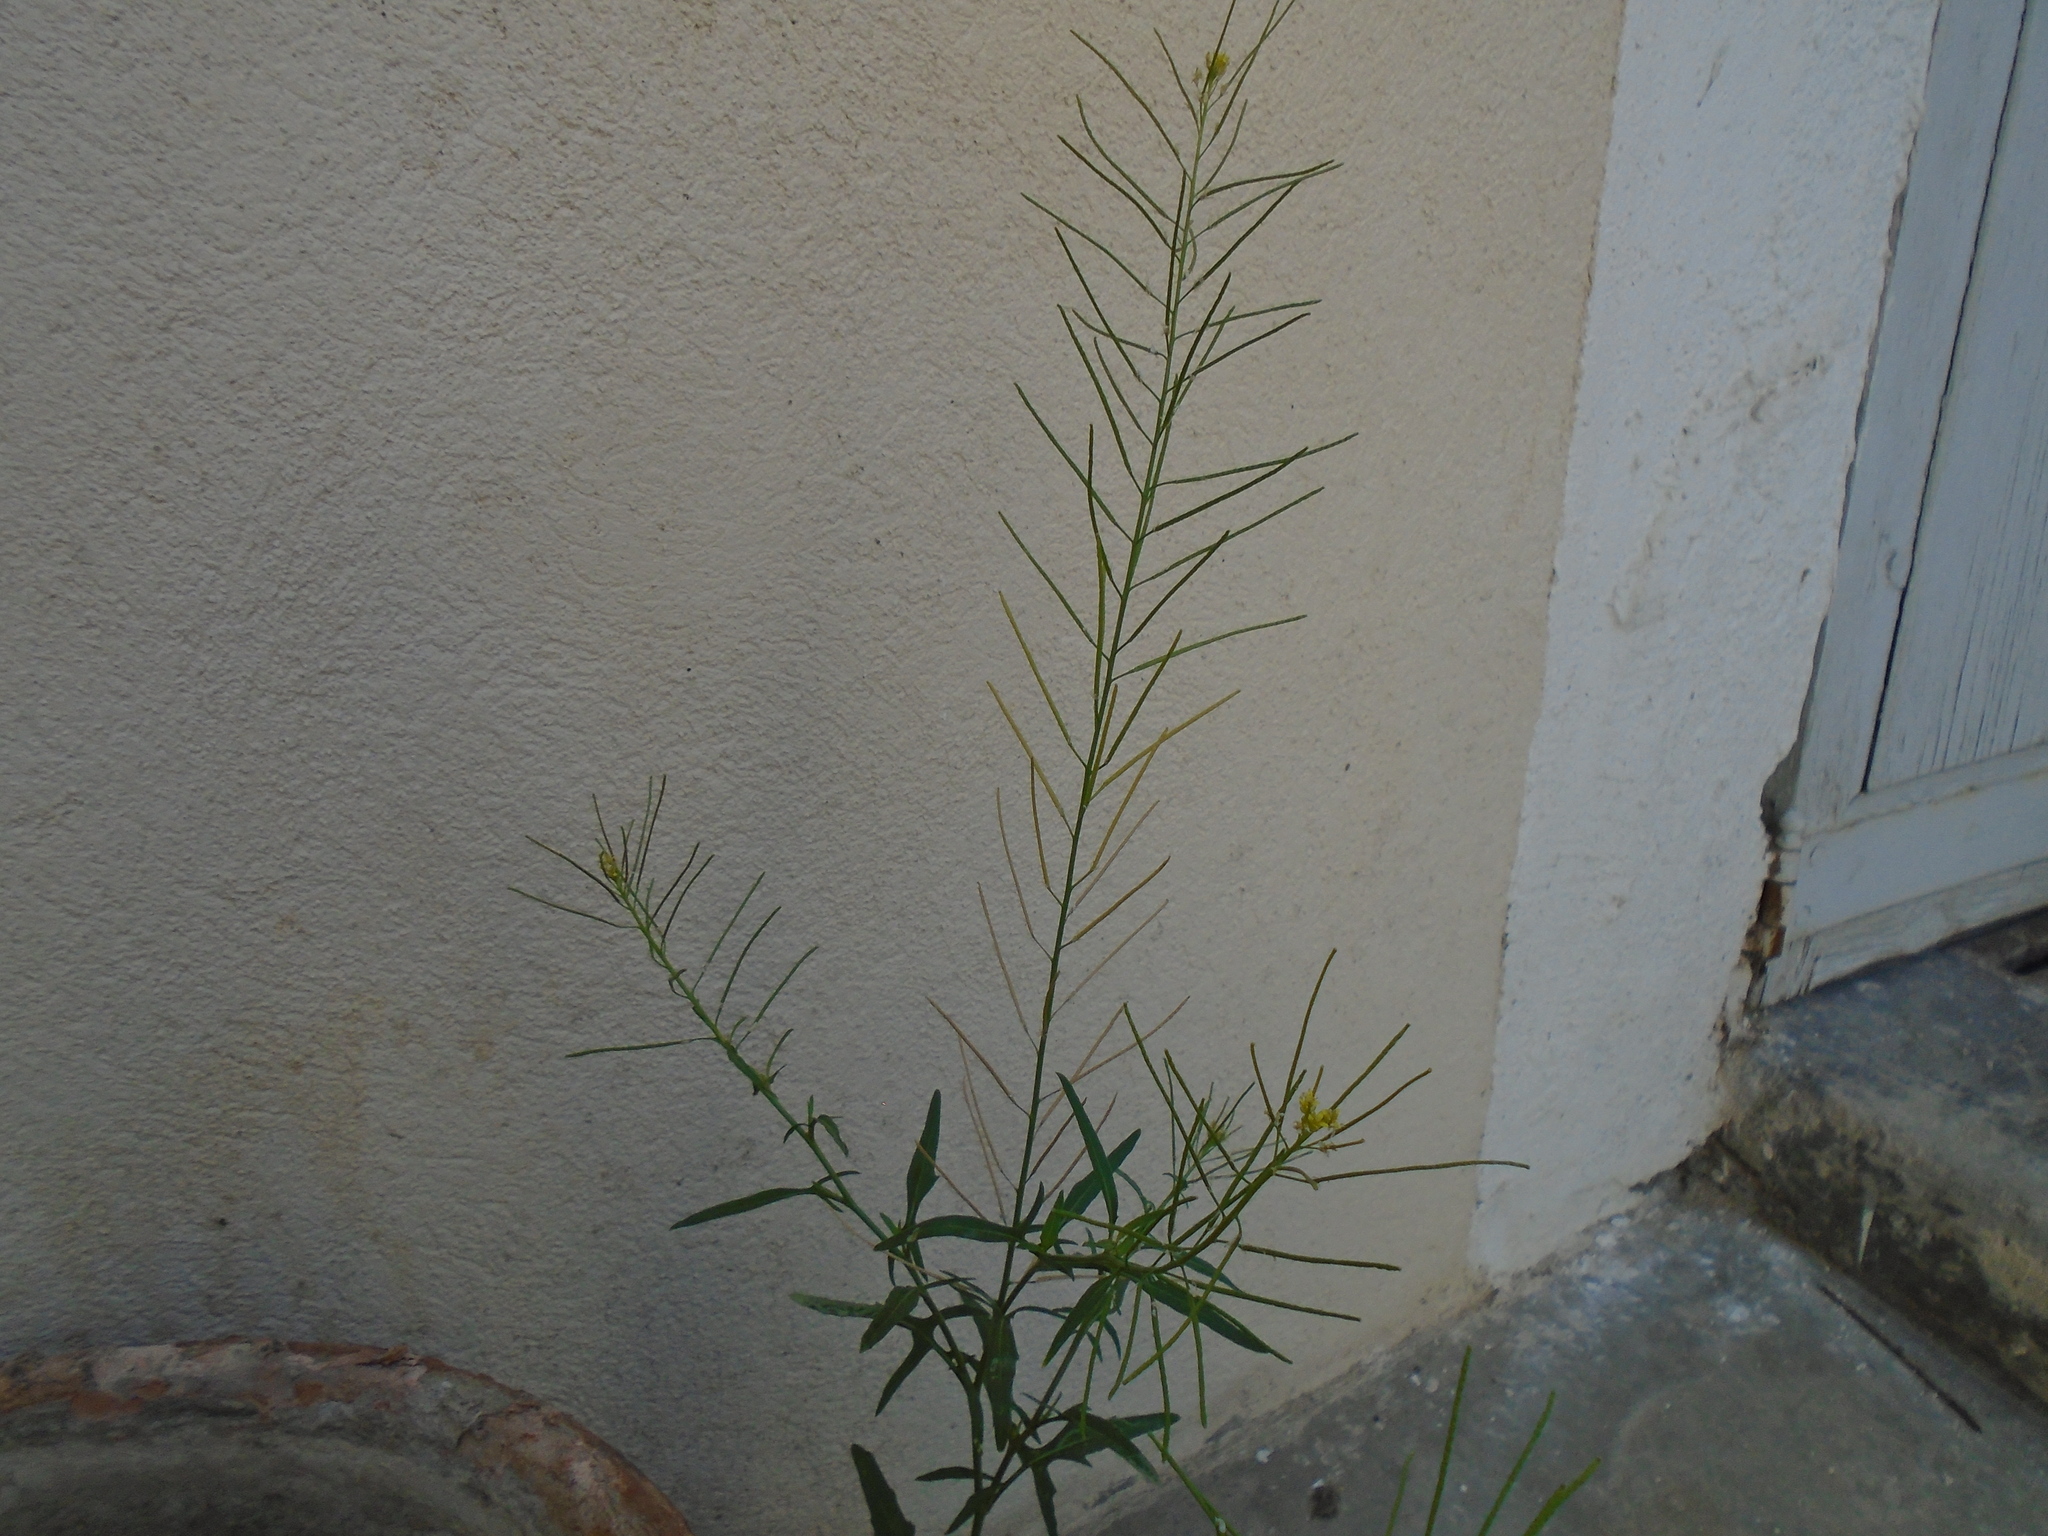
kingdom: Plantae
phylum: Tracheophyta
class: Magnoliopsida
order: Brassicales
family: Brassicaceae
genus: Sisymbrium
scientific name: Sisymbrium irio
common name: London rocket
